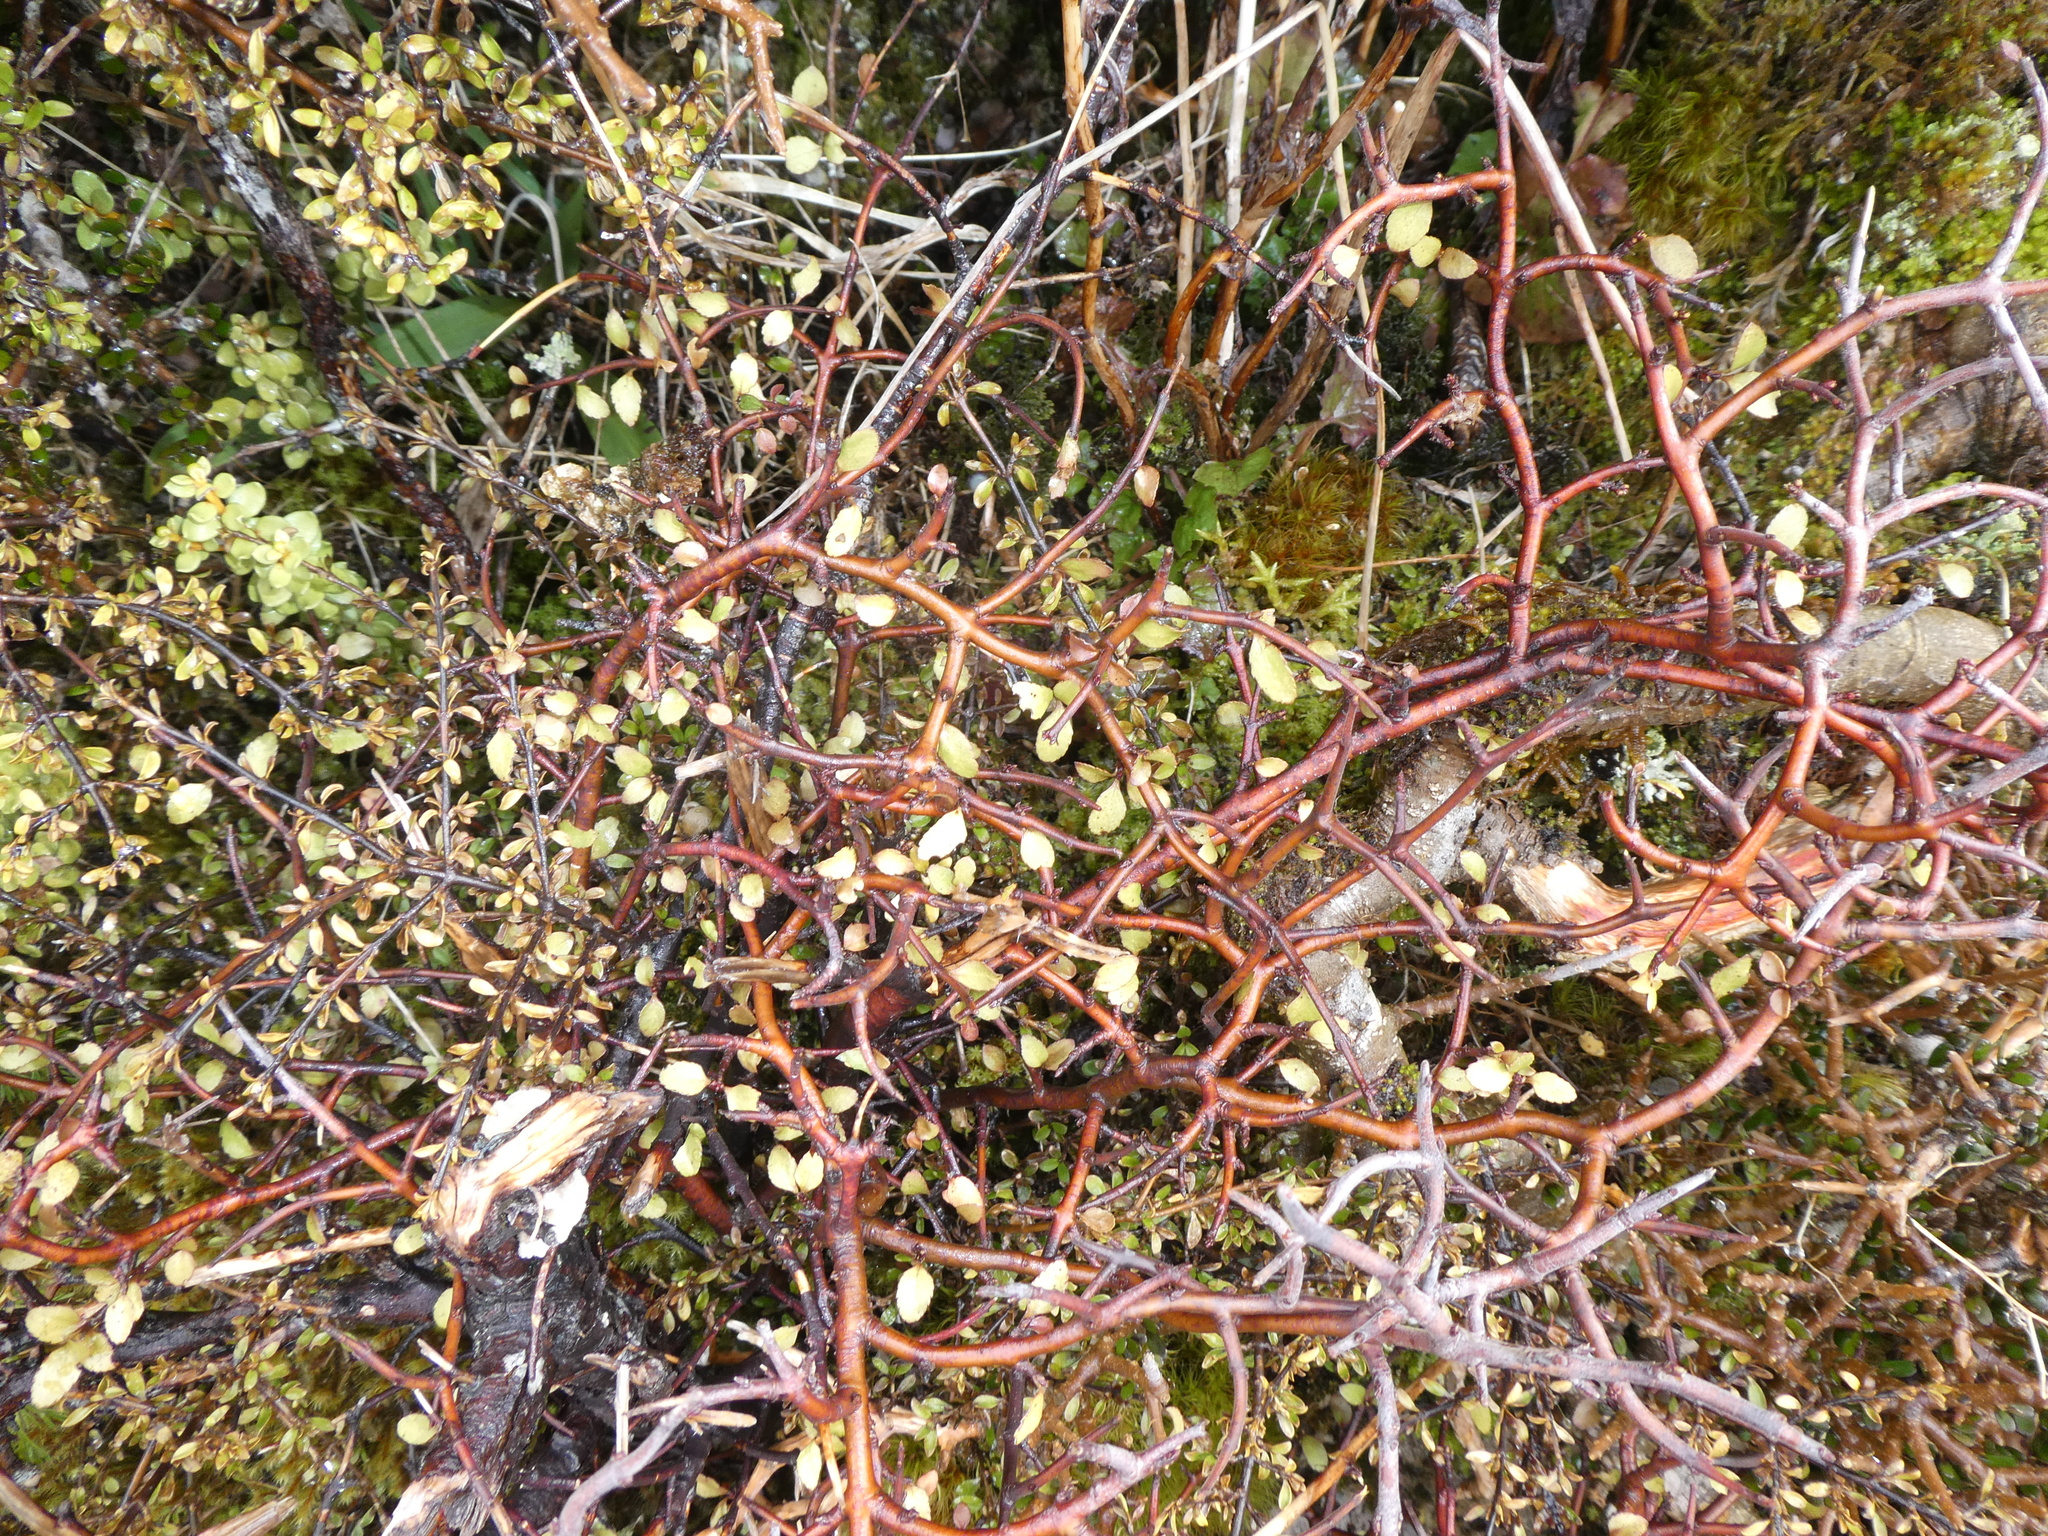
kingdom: Plantae
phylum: Tracheophyta
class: Magnoliopsida
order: Oxalidales
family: Elaeocarpaceae
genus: Aristotelia
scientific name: Aristotelia fruticosa
